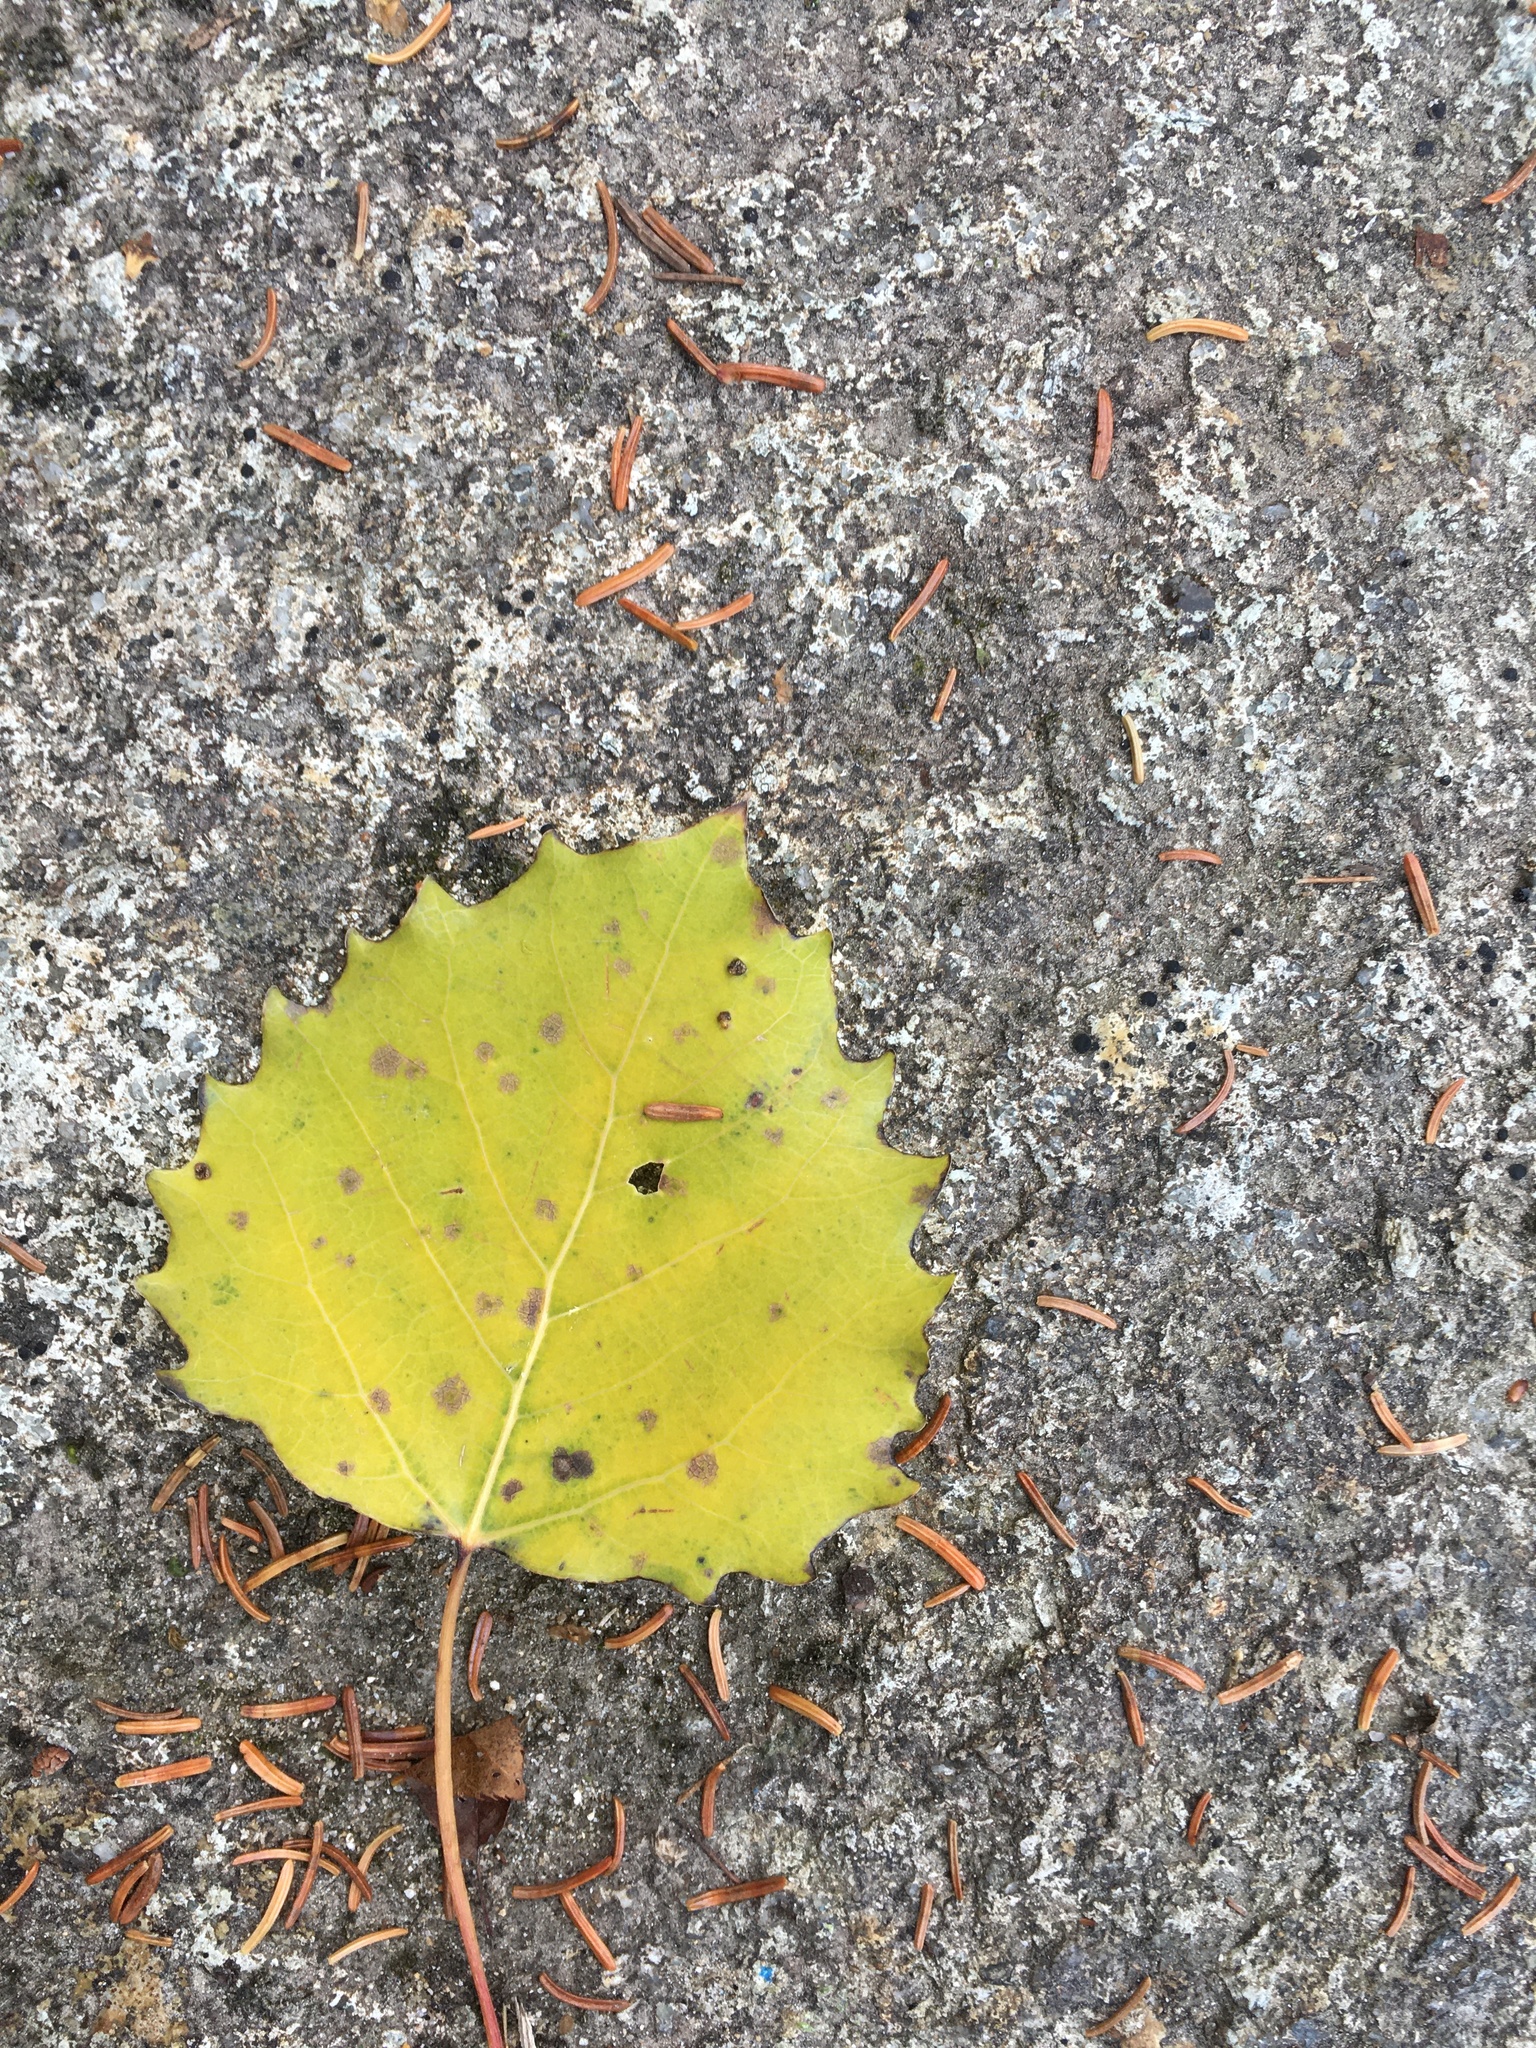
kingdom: Plantae
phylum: Tracheophyta
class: Magnoliopsida
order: Malpighiales
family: Salicaceae
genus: Populus
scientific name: Populus grandidentata
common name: Bigtooth aspen
